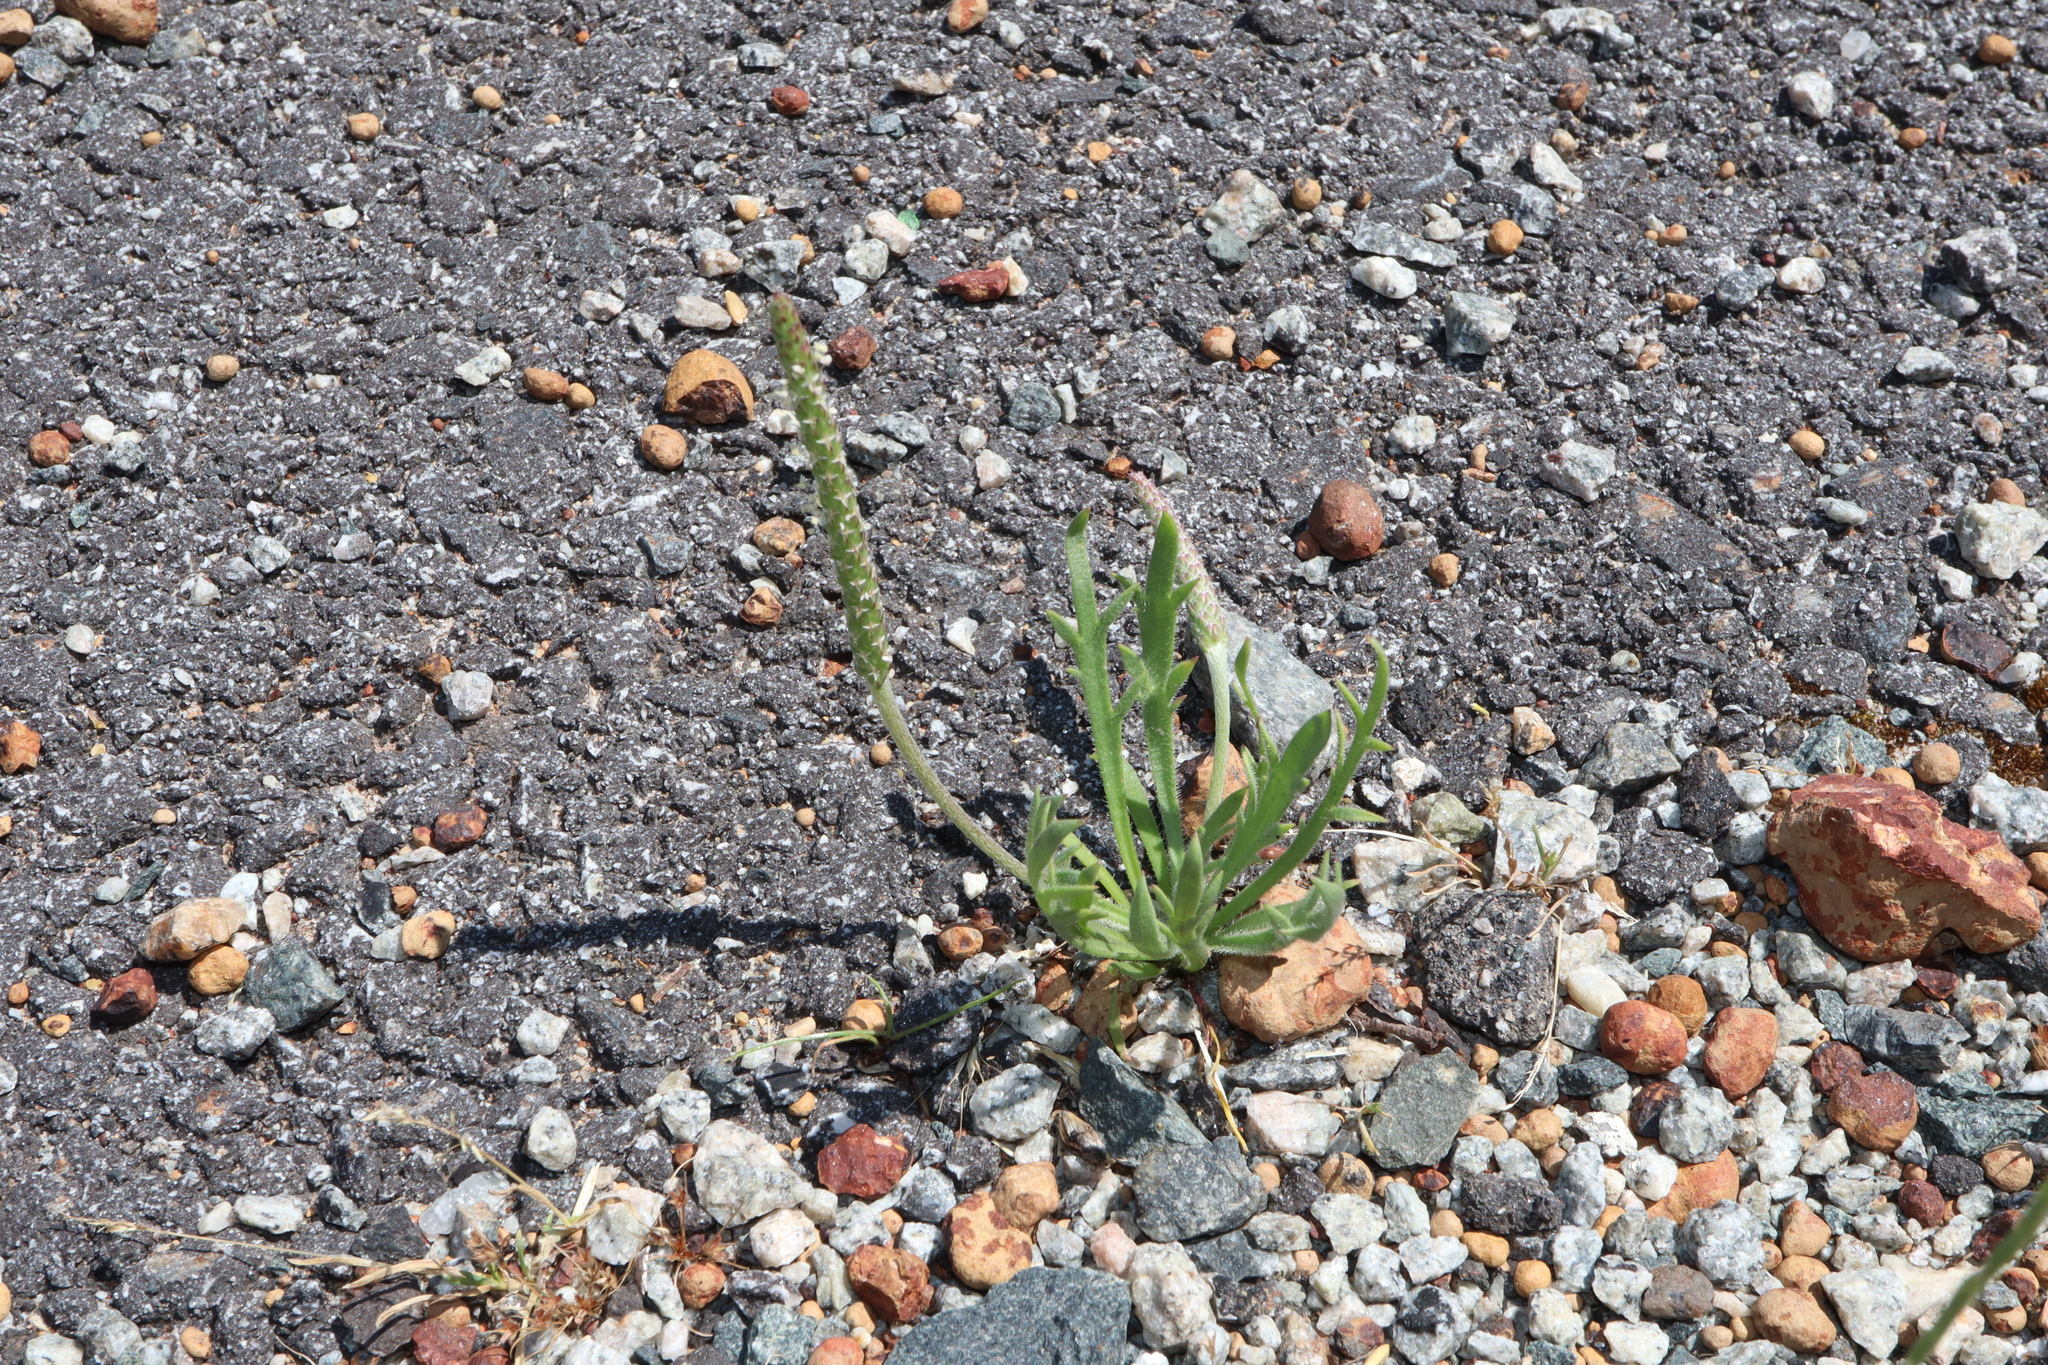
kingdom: Plantae
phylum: Tracheophyta
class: Magnoliopsida
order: Lamiales
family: Plantaginaceae
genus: Plantago
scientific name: Plantago coronopus
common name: Buck's-horn plantain
